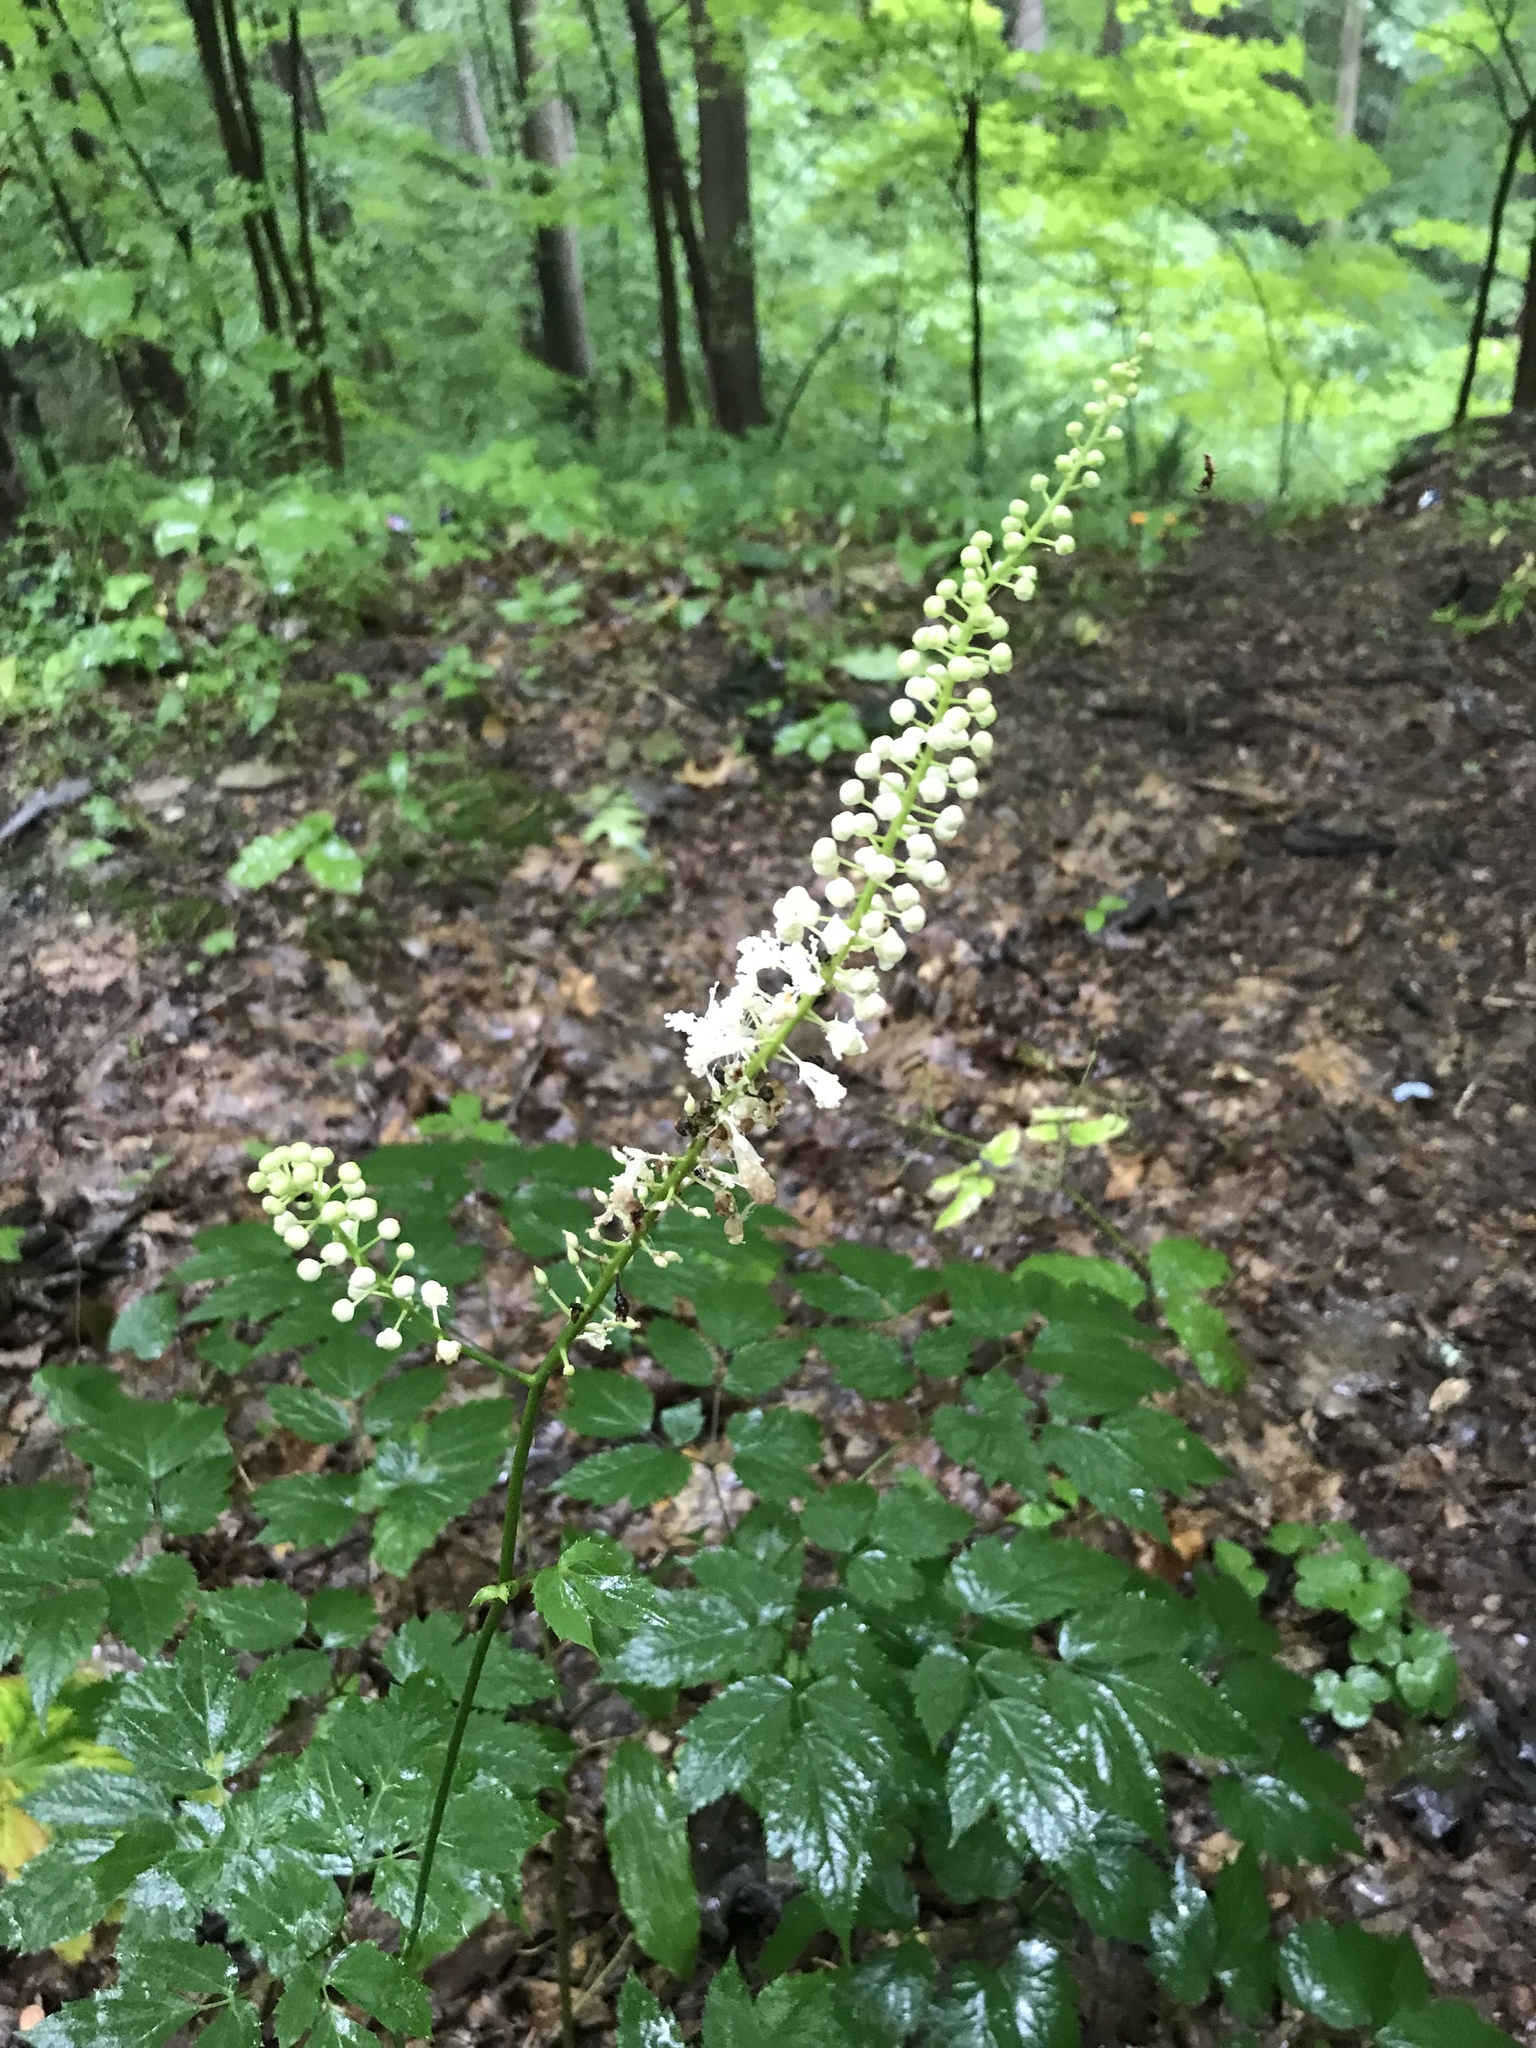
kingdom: Plantae
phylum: Tracheophyta
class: Magnoliopsida
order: Ranunculales
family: Ranunculaceae
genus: Actaea
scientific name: Actaea racemosa
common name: Black cohosh
